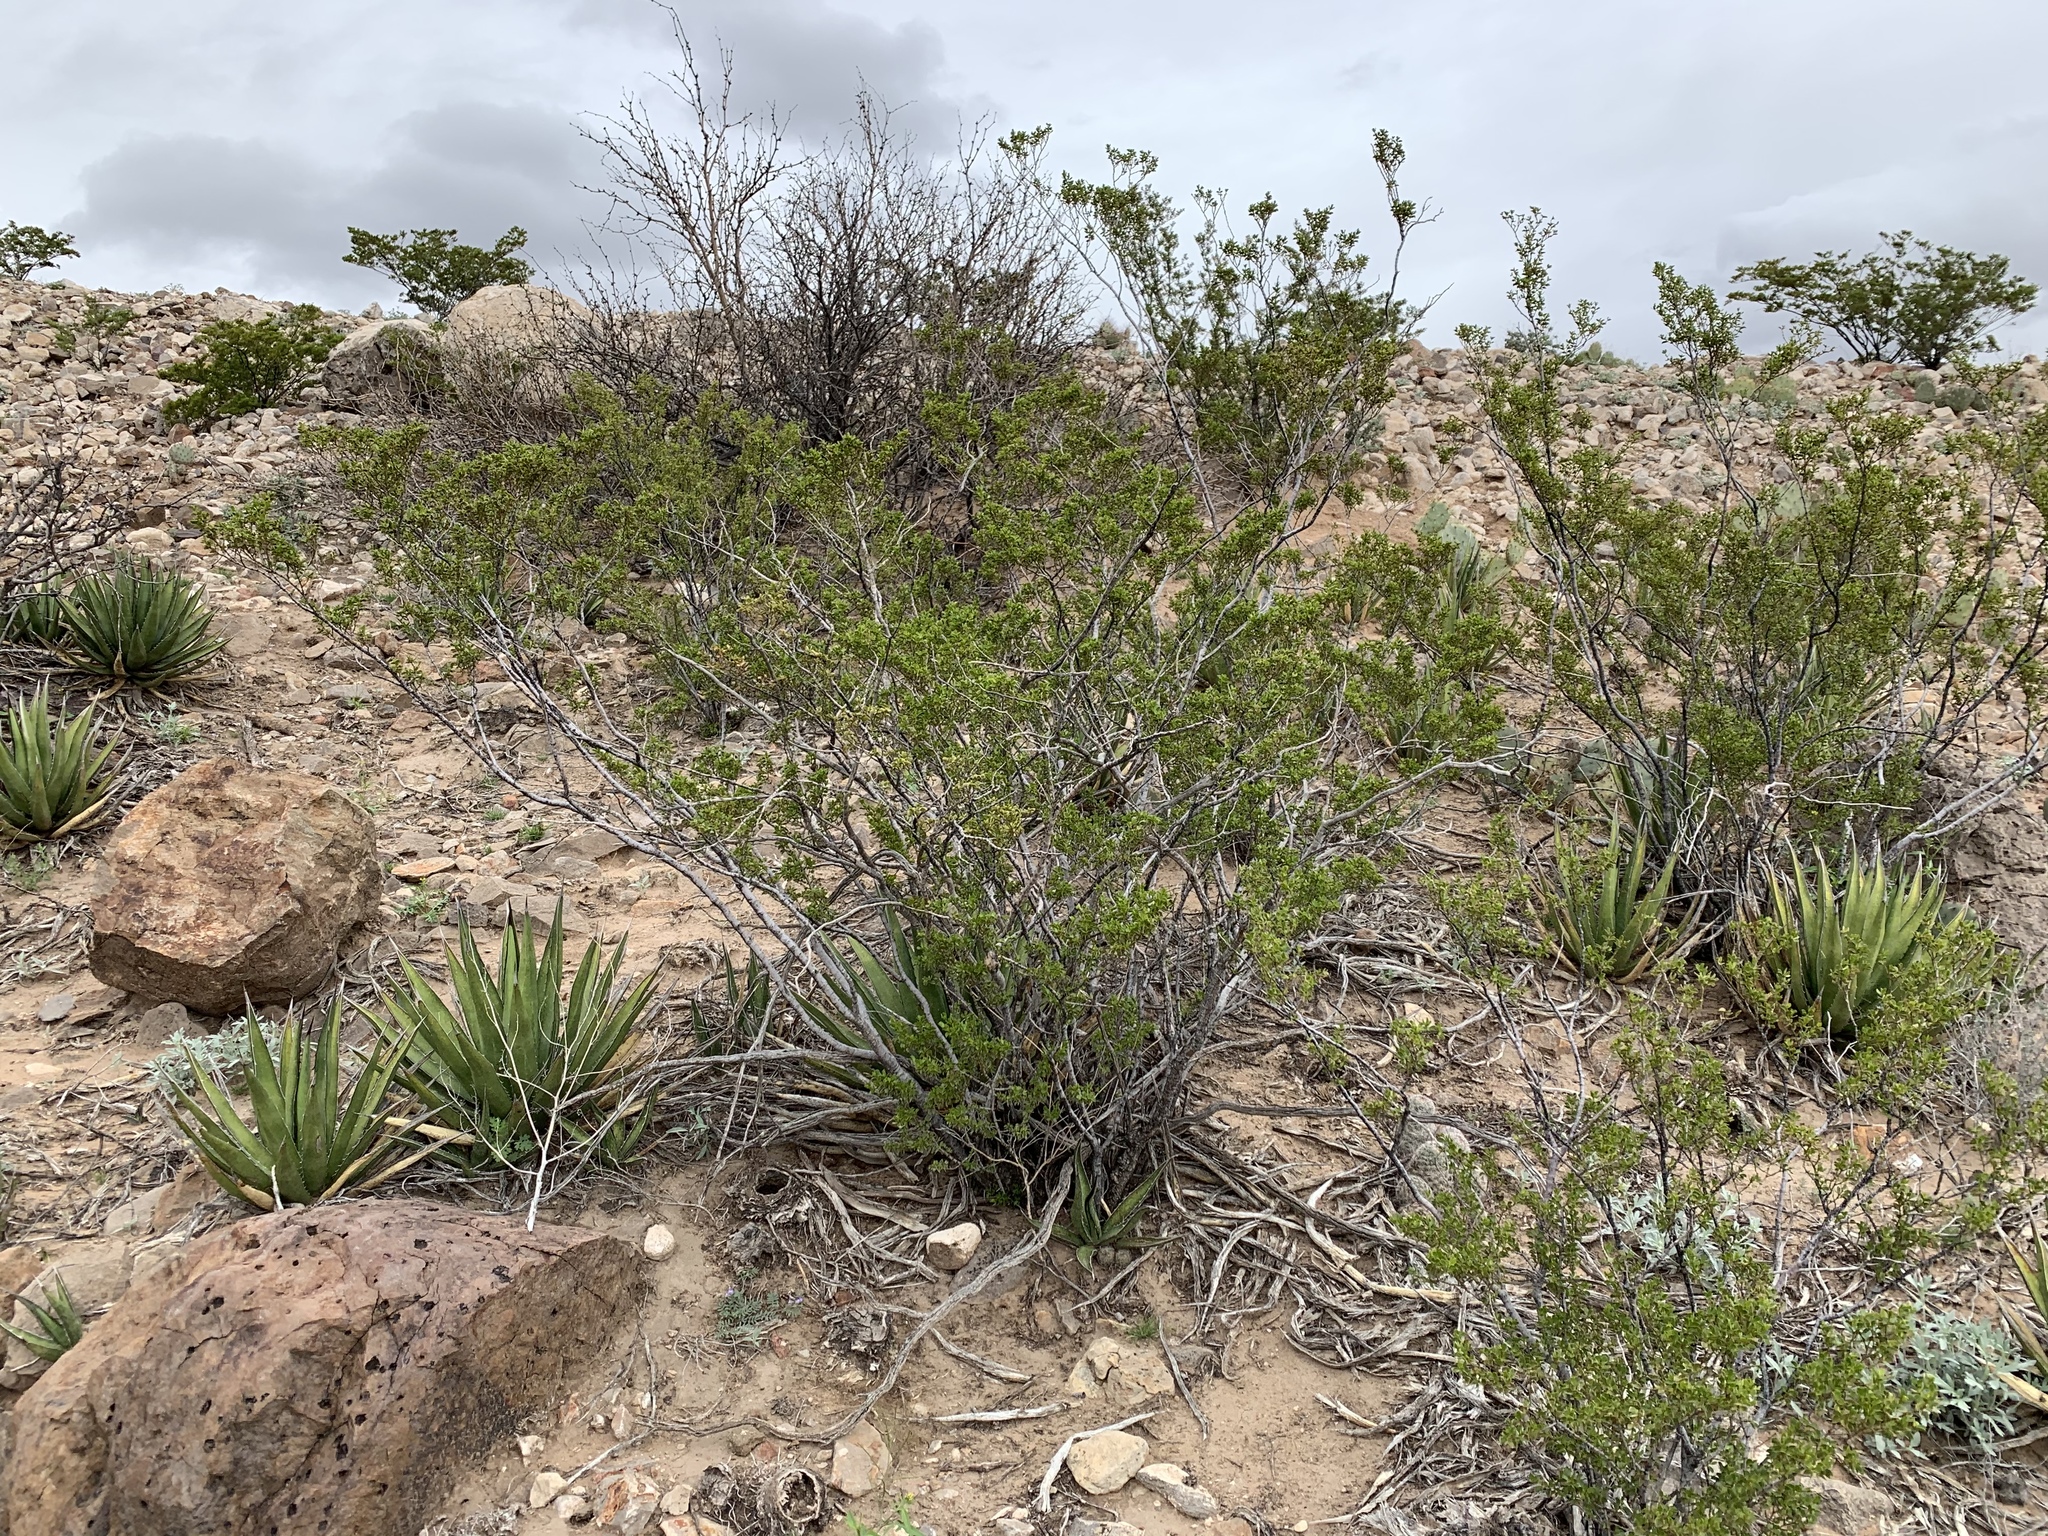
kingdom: Plantae
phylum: Tracheophyta
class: Magnoliopsida
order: Zygophyllales
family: Zygophyllaceae
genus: Larrea
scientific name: Larrea tridentata
